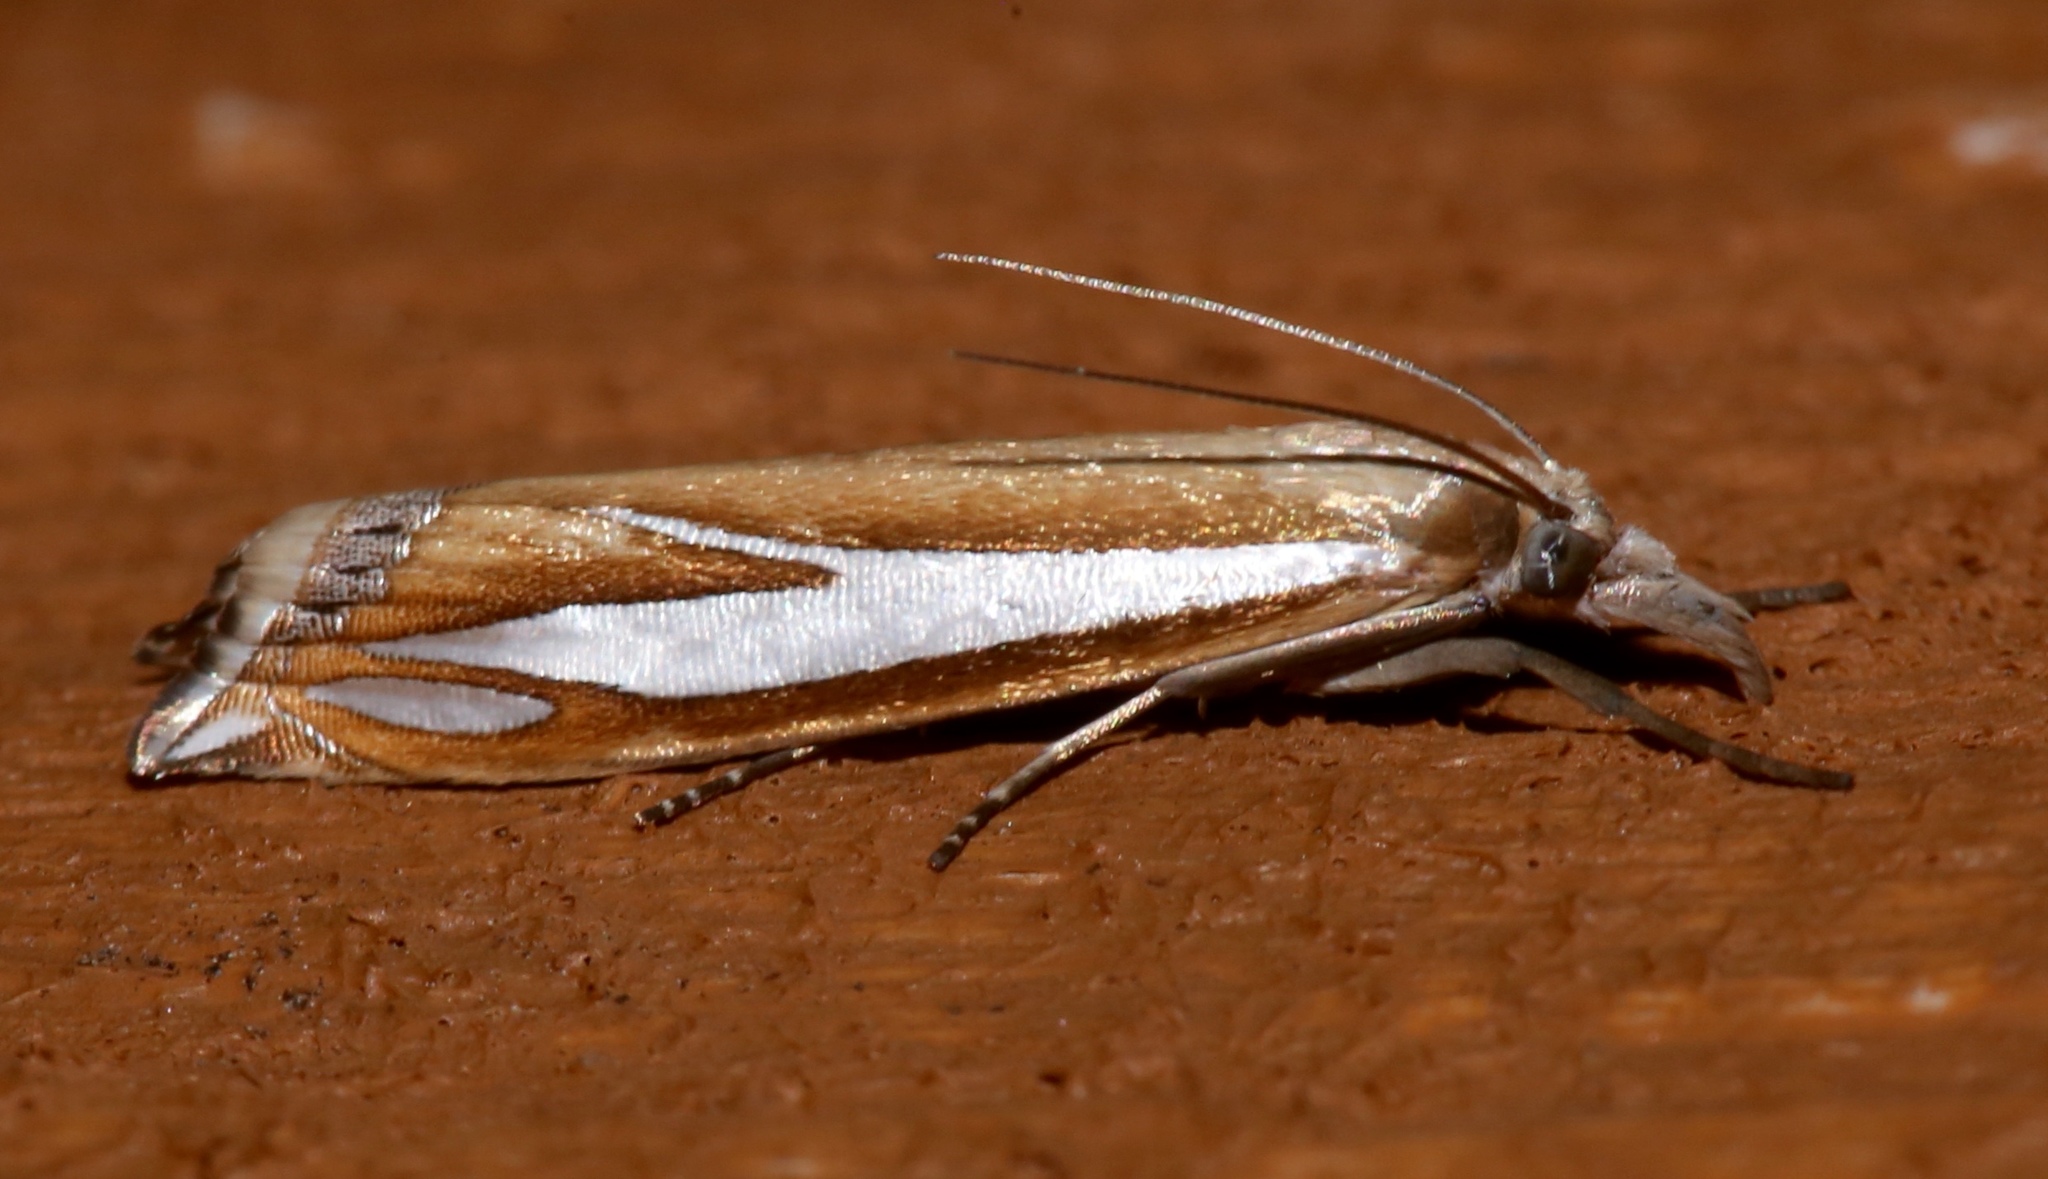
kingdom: Animalia
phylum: Arthropoda
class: Insecta
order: Lepidoptera
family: Crambidae
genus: Crambus
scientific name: Crambus satrapellus
